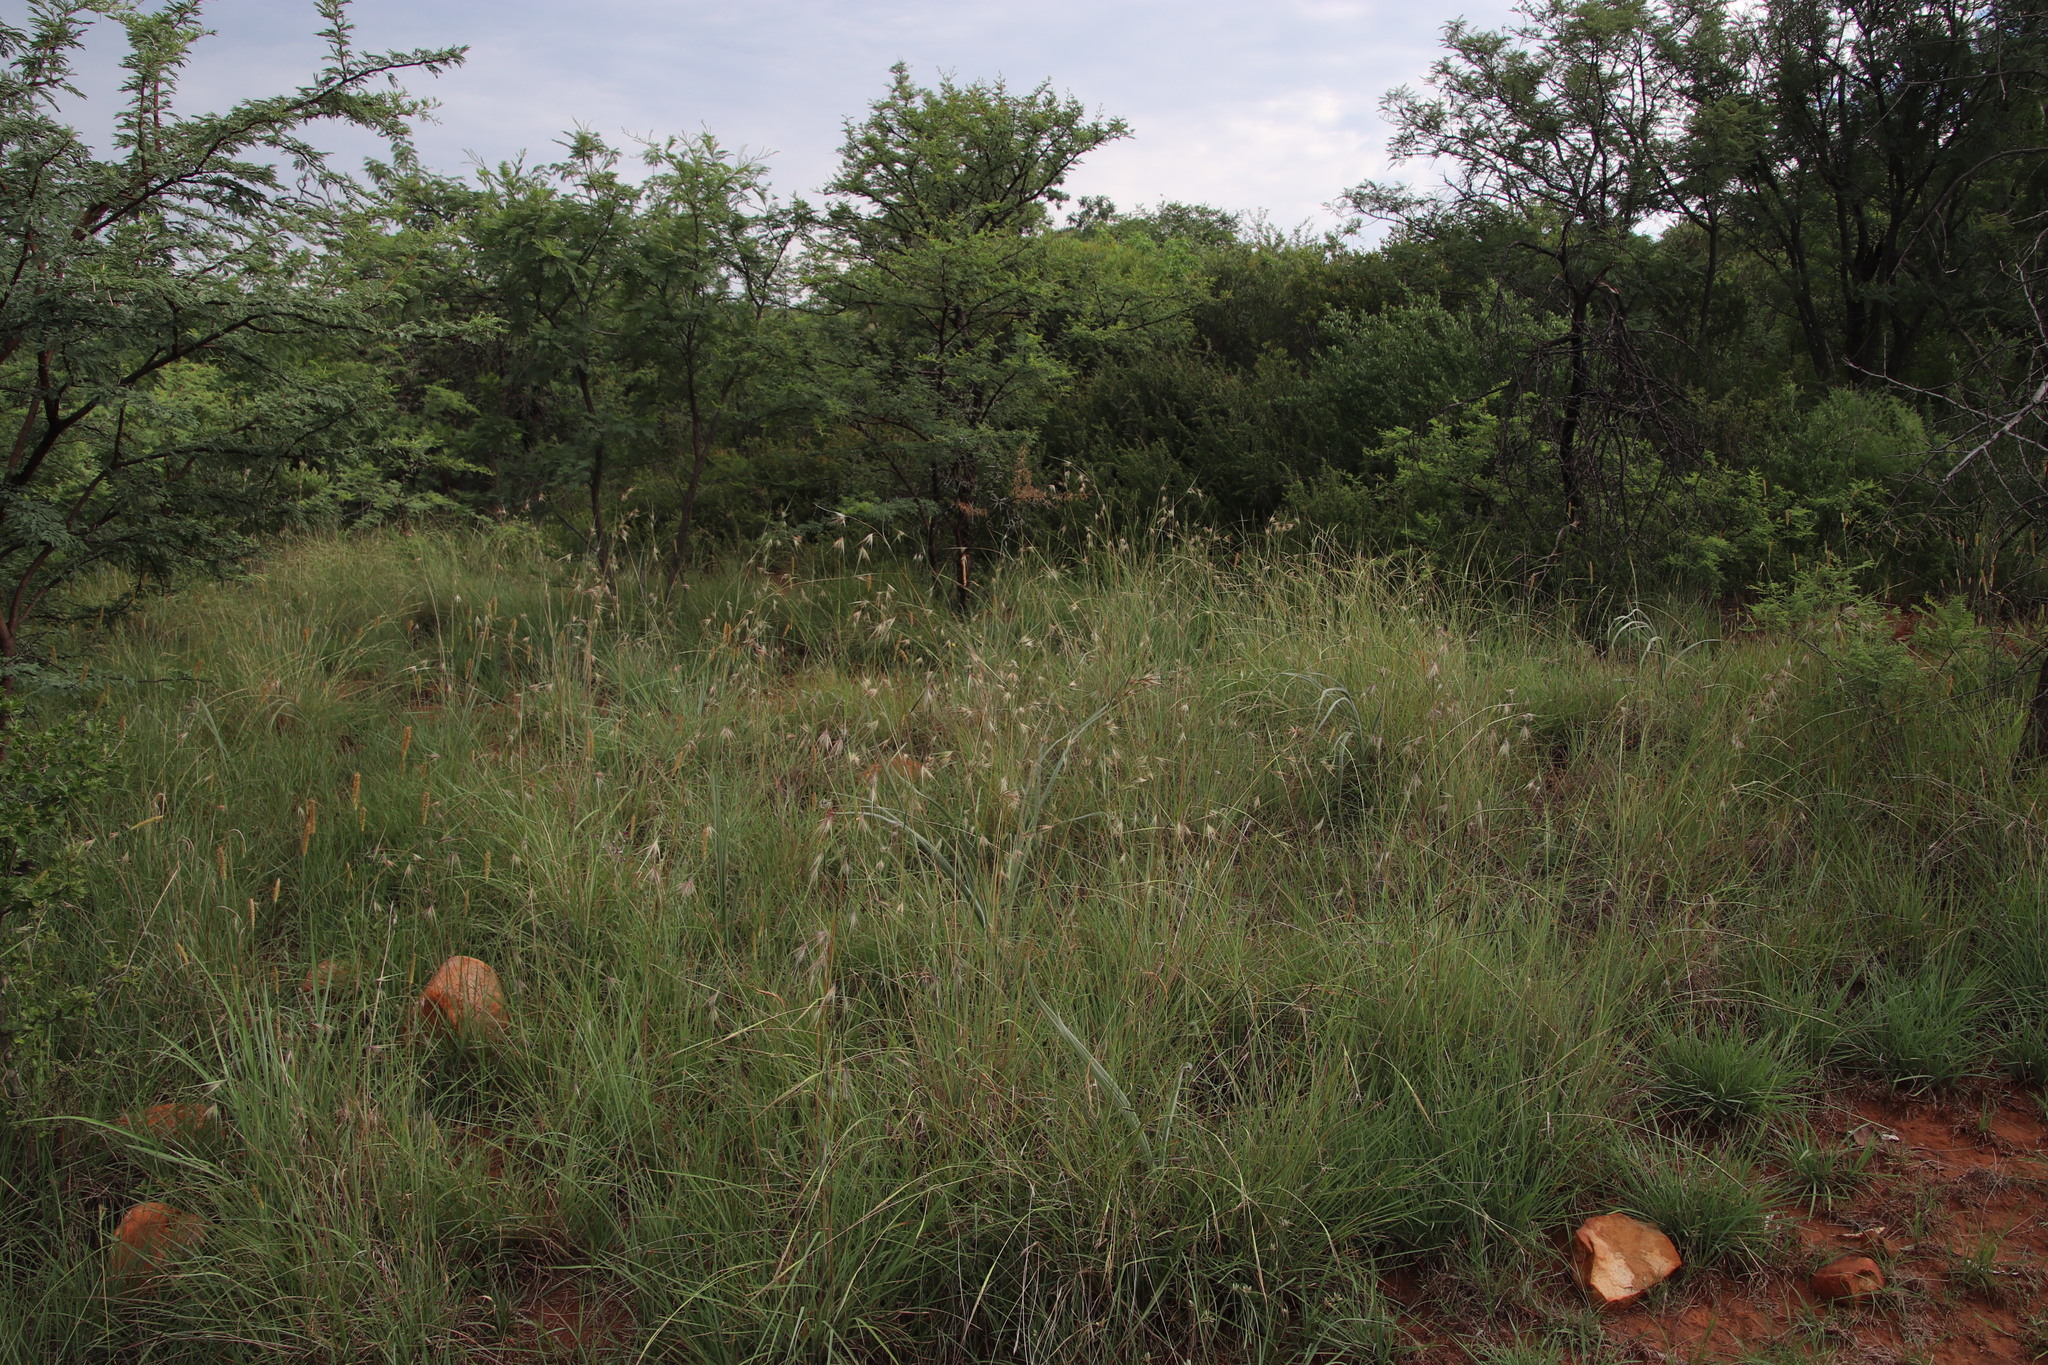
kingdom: Plantae
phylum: Tracheophyta
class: Liliopsida
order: Poales
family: Poaceae
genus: Themeda
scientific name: Themeda triandra
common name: Kangaroo grass
